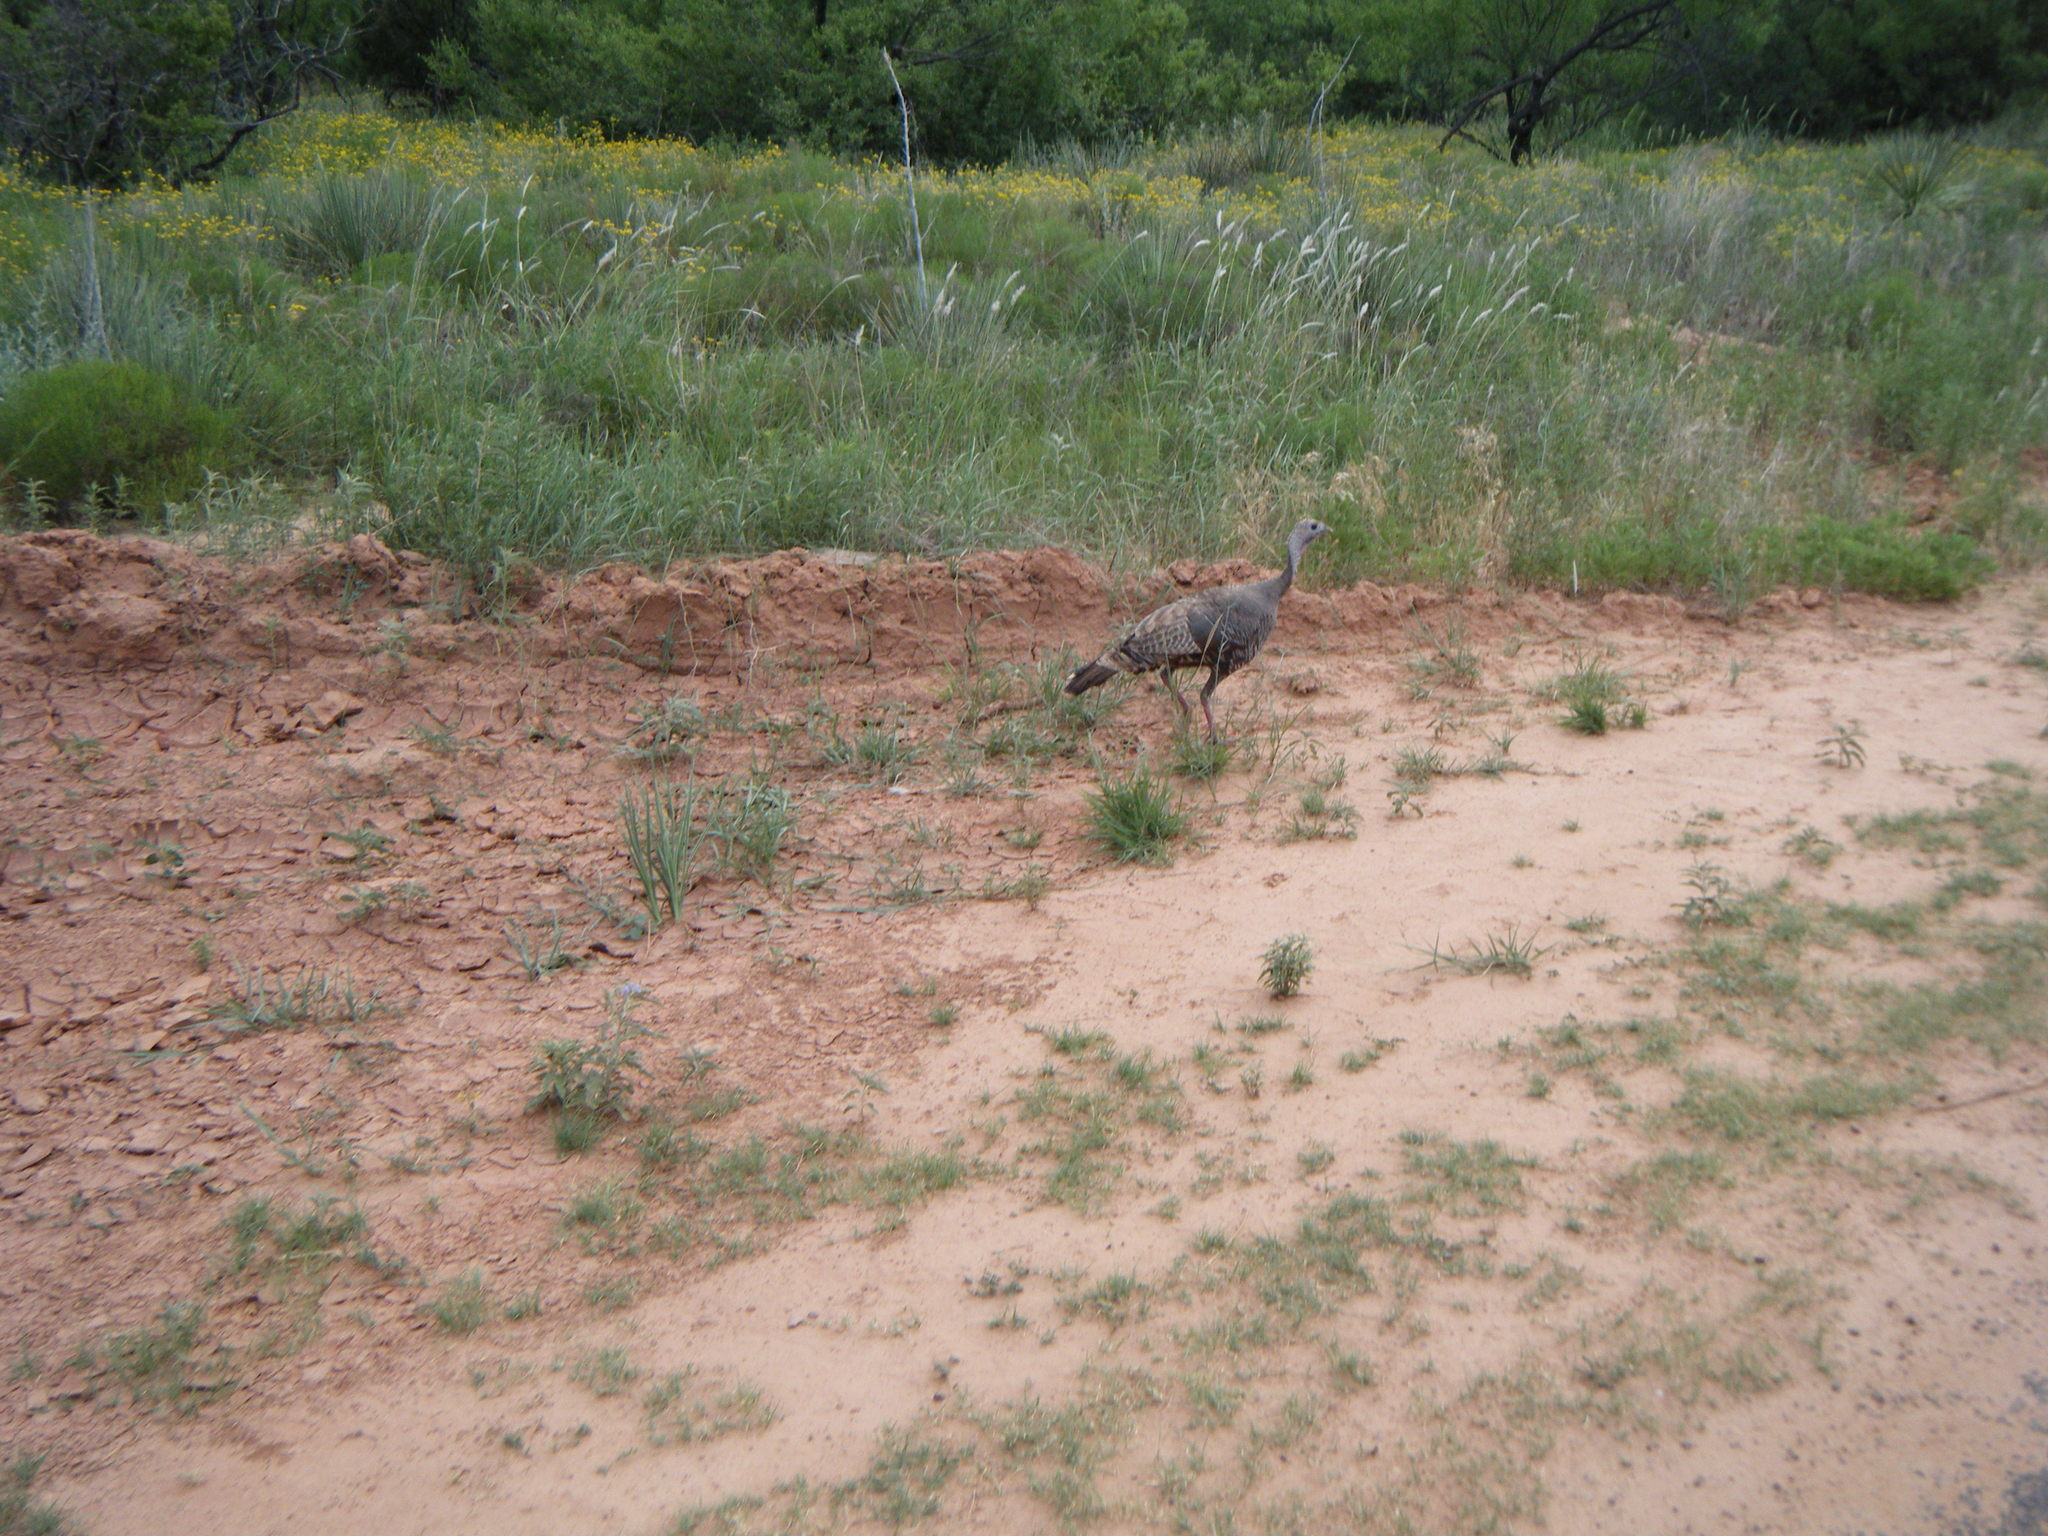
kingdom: Animalia
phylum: Chordata
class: Aves
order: Galliformes
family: Phasianidae
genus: Meleagris
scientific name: Meleagris gallopavo
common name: Wild turkey
